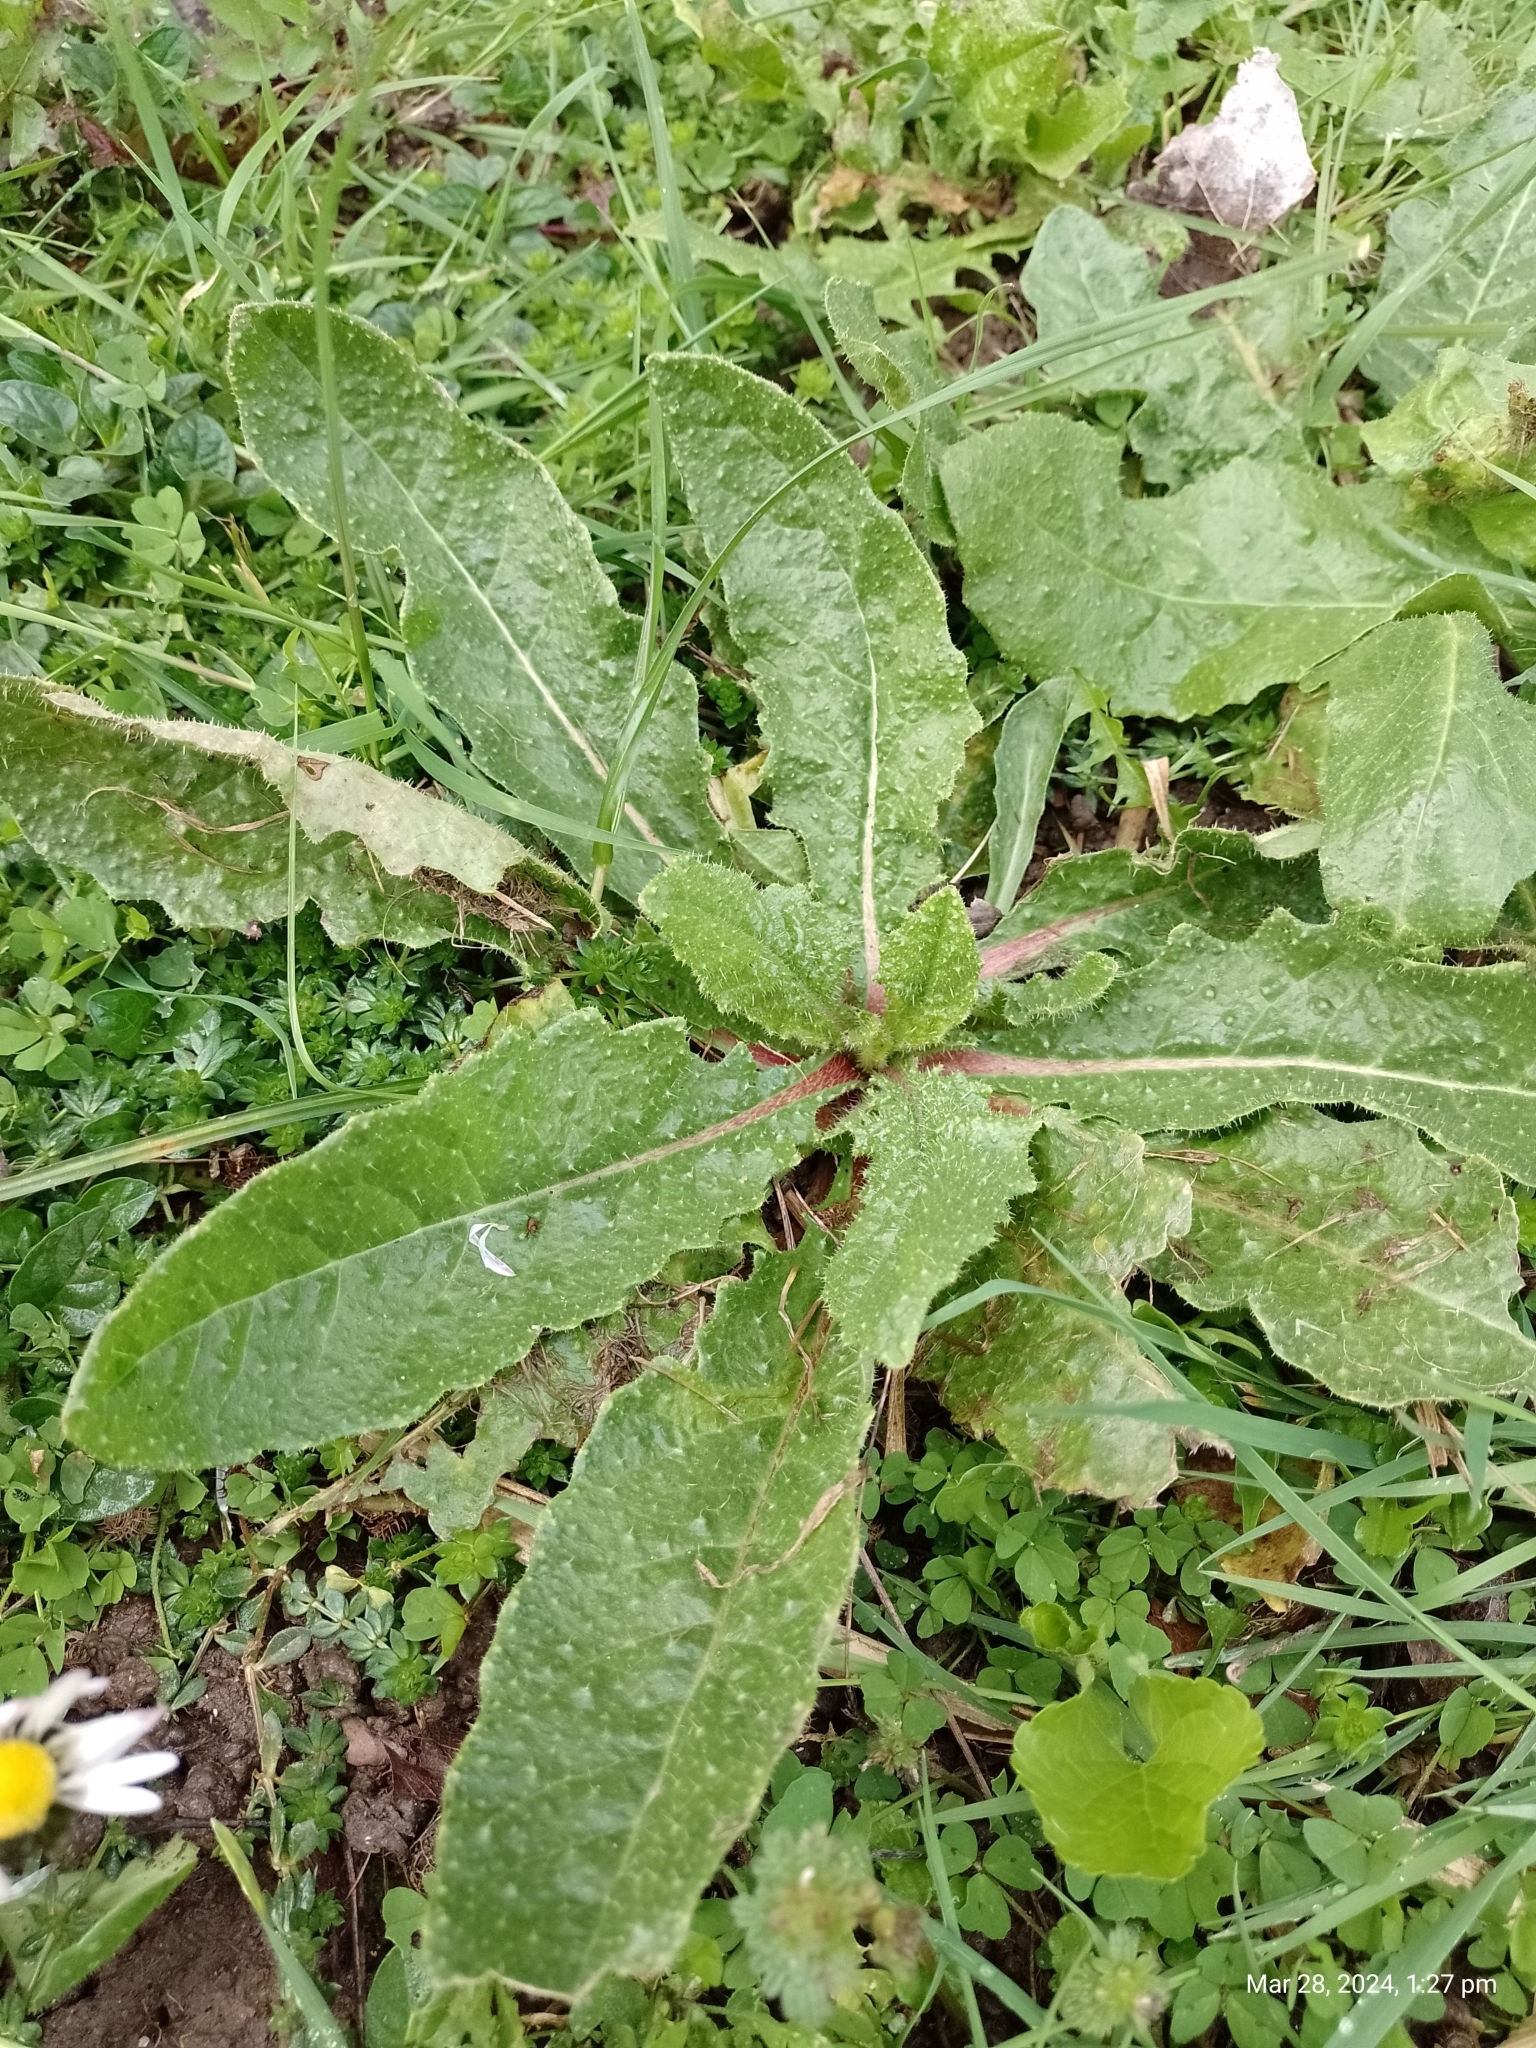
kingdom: Plantae
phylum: Tracheophyta
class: Magnoliopsida
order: Asterales
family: Asteraceae
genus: Helminthotheca
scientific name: Helminthotheca echioides
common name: Ox-tongue
